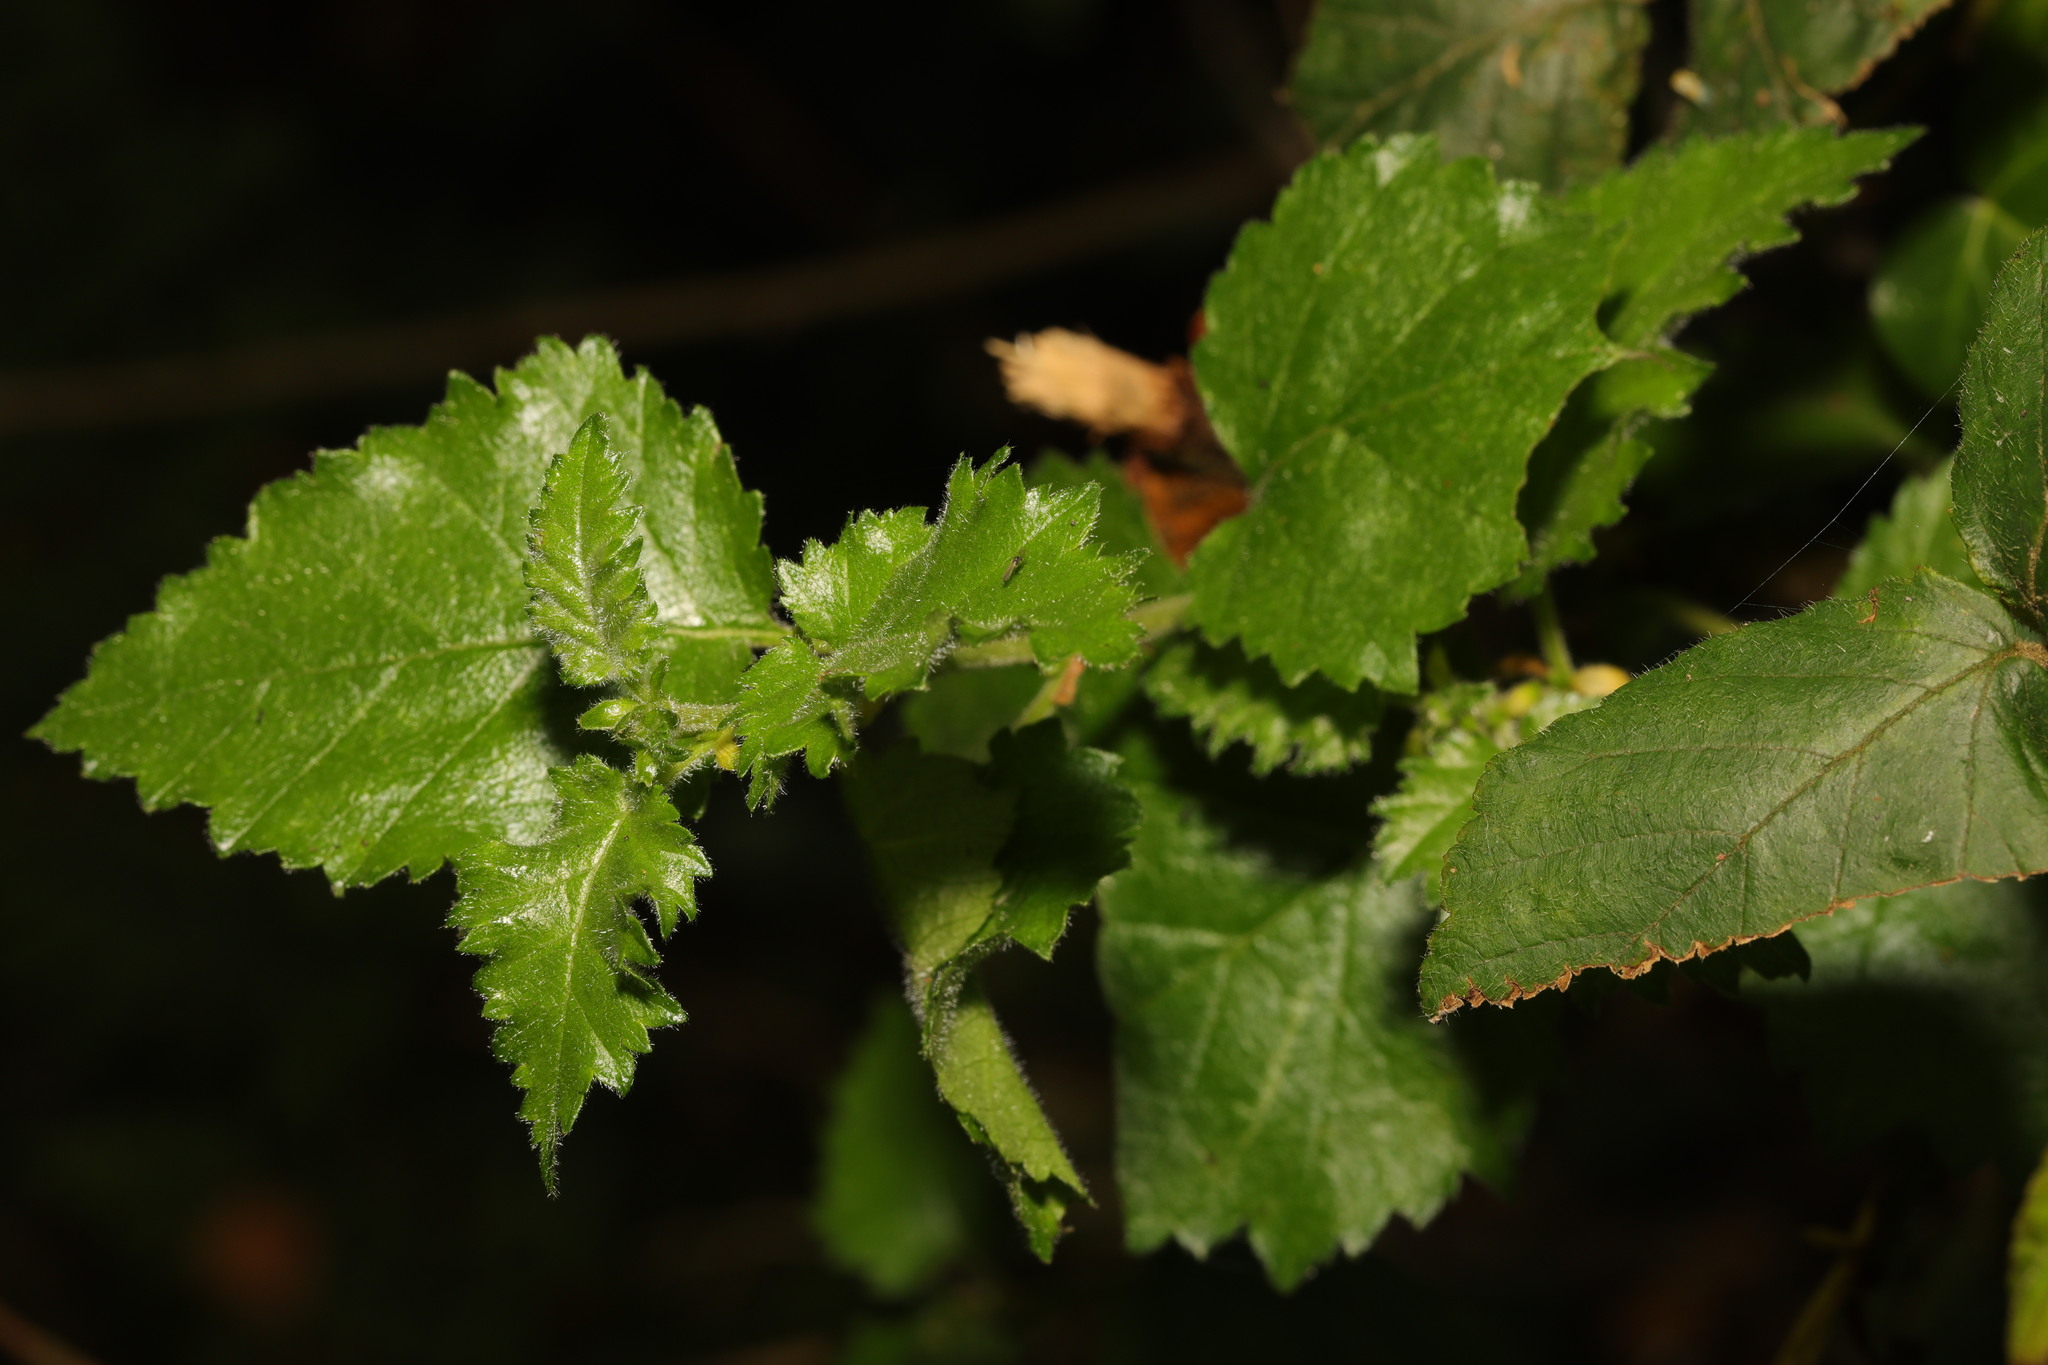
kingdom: Plantae
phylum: Tracheophyta
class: Magnoliopsida
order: Fagales
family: Betulaceae
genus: Betula
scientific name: Betula pubescens
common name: Downy birch
